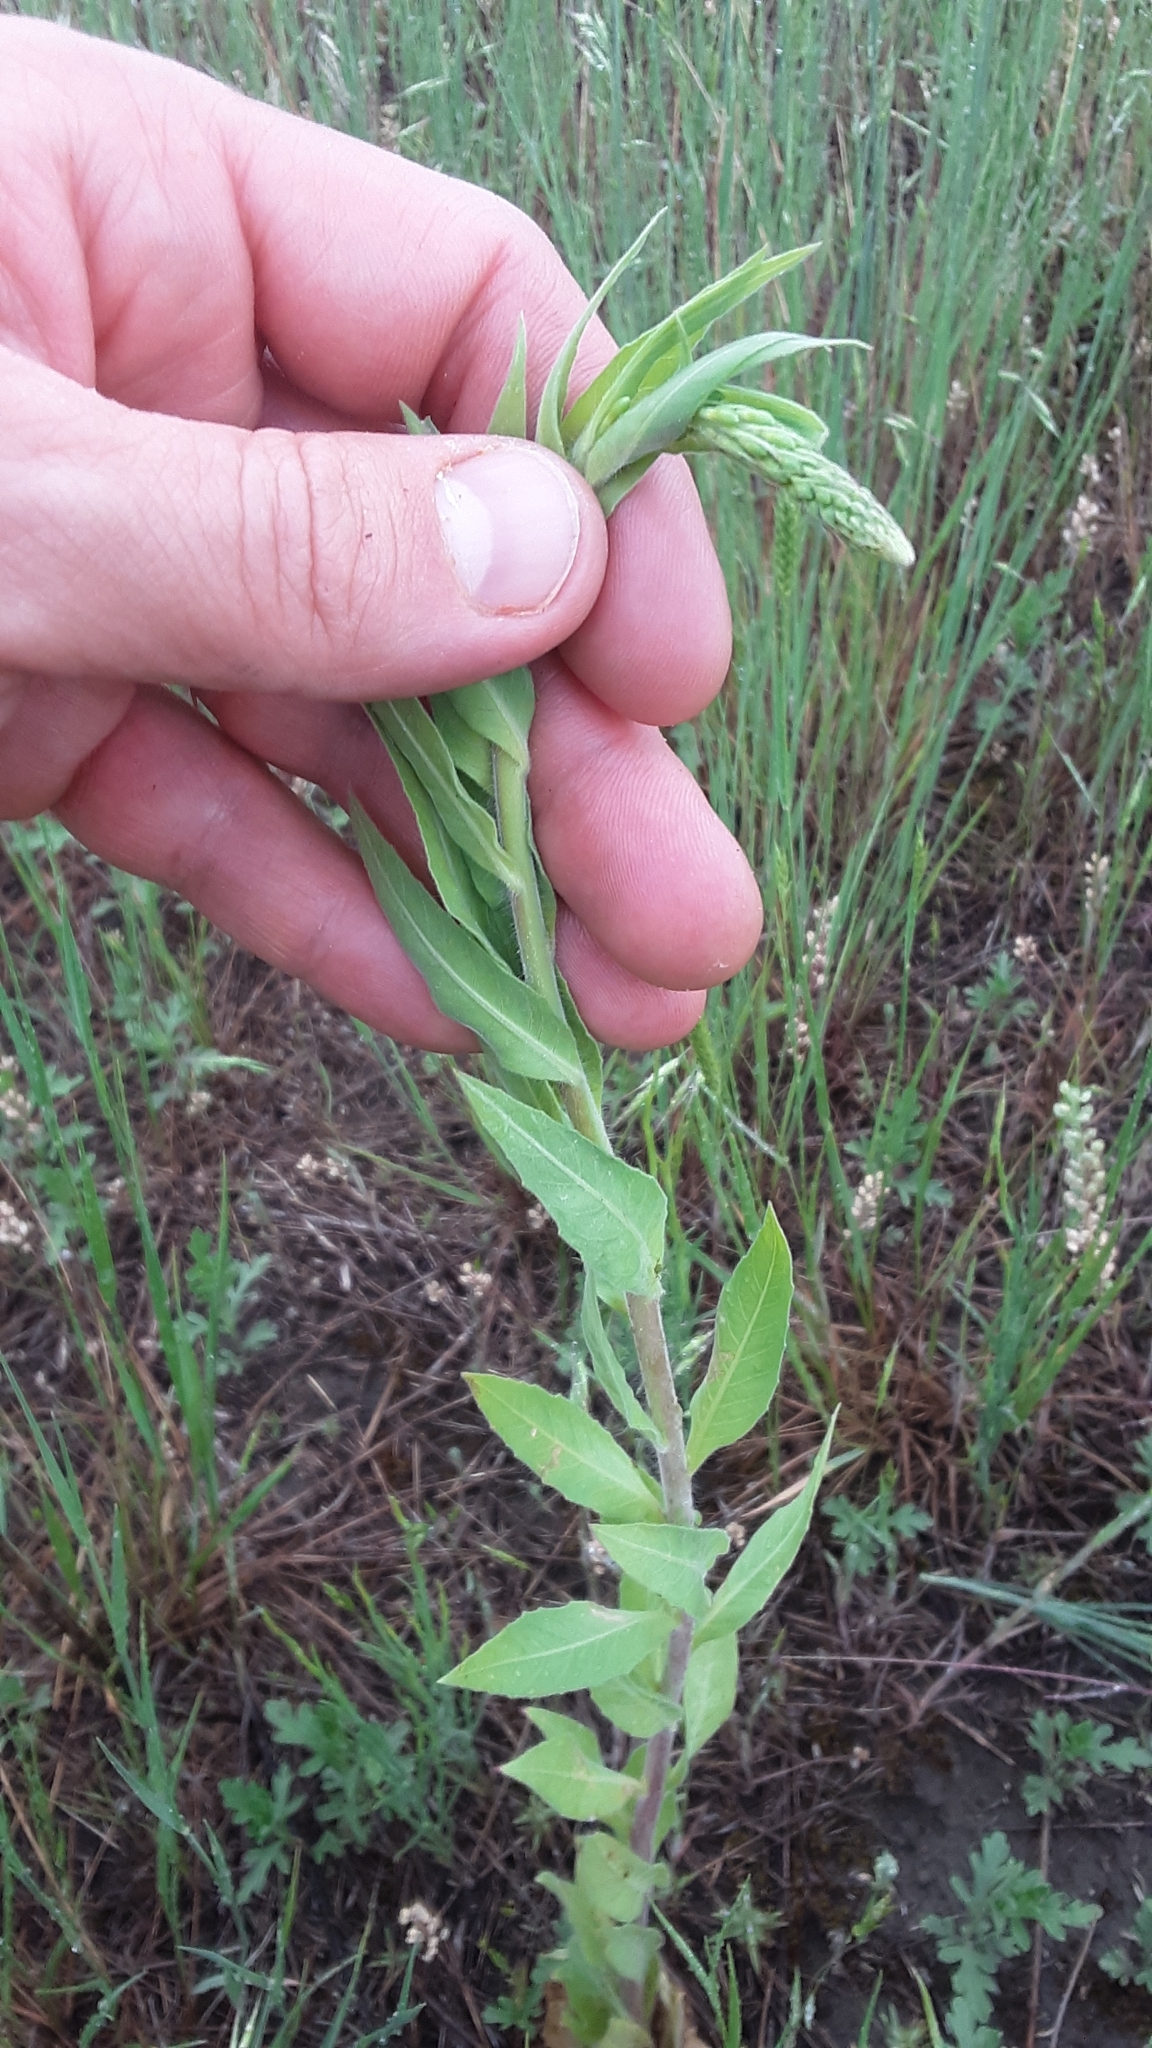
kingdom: Plantae
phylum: Tracheophyta
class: Magnoliopsida
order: Myrtales
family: Onagraceae
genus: Oenothera
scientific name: Oenothera curtiflora
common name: Velvetweed
